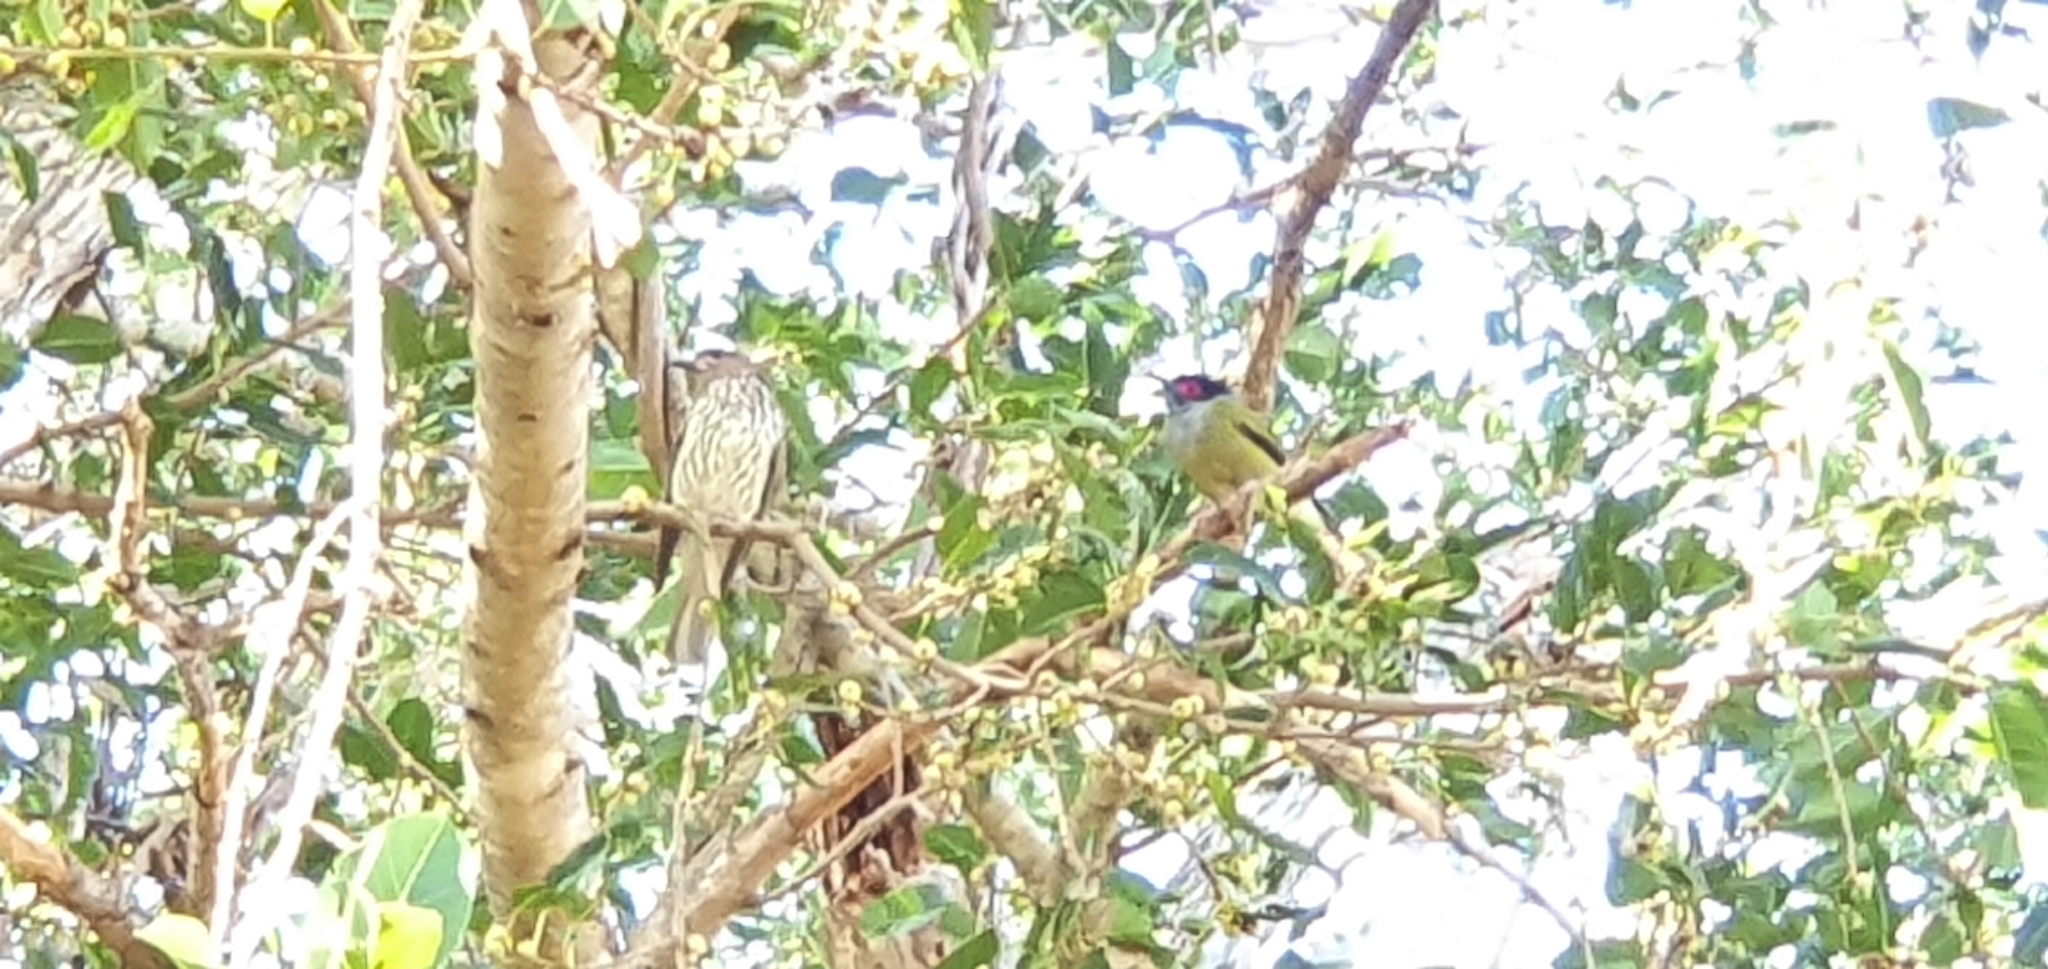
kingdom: Animalia
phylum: Chordata
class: Aves
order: Passeriformes
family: Oriolidae
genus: Sphecotheres
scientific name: Sphecotheres vieilloti
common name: Australasian figbird
